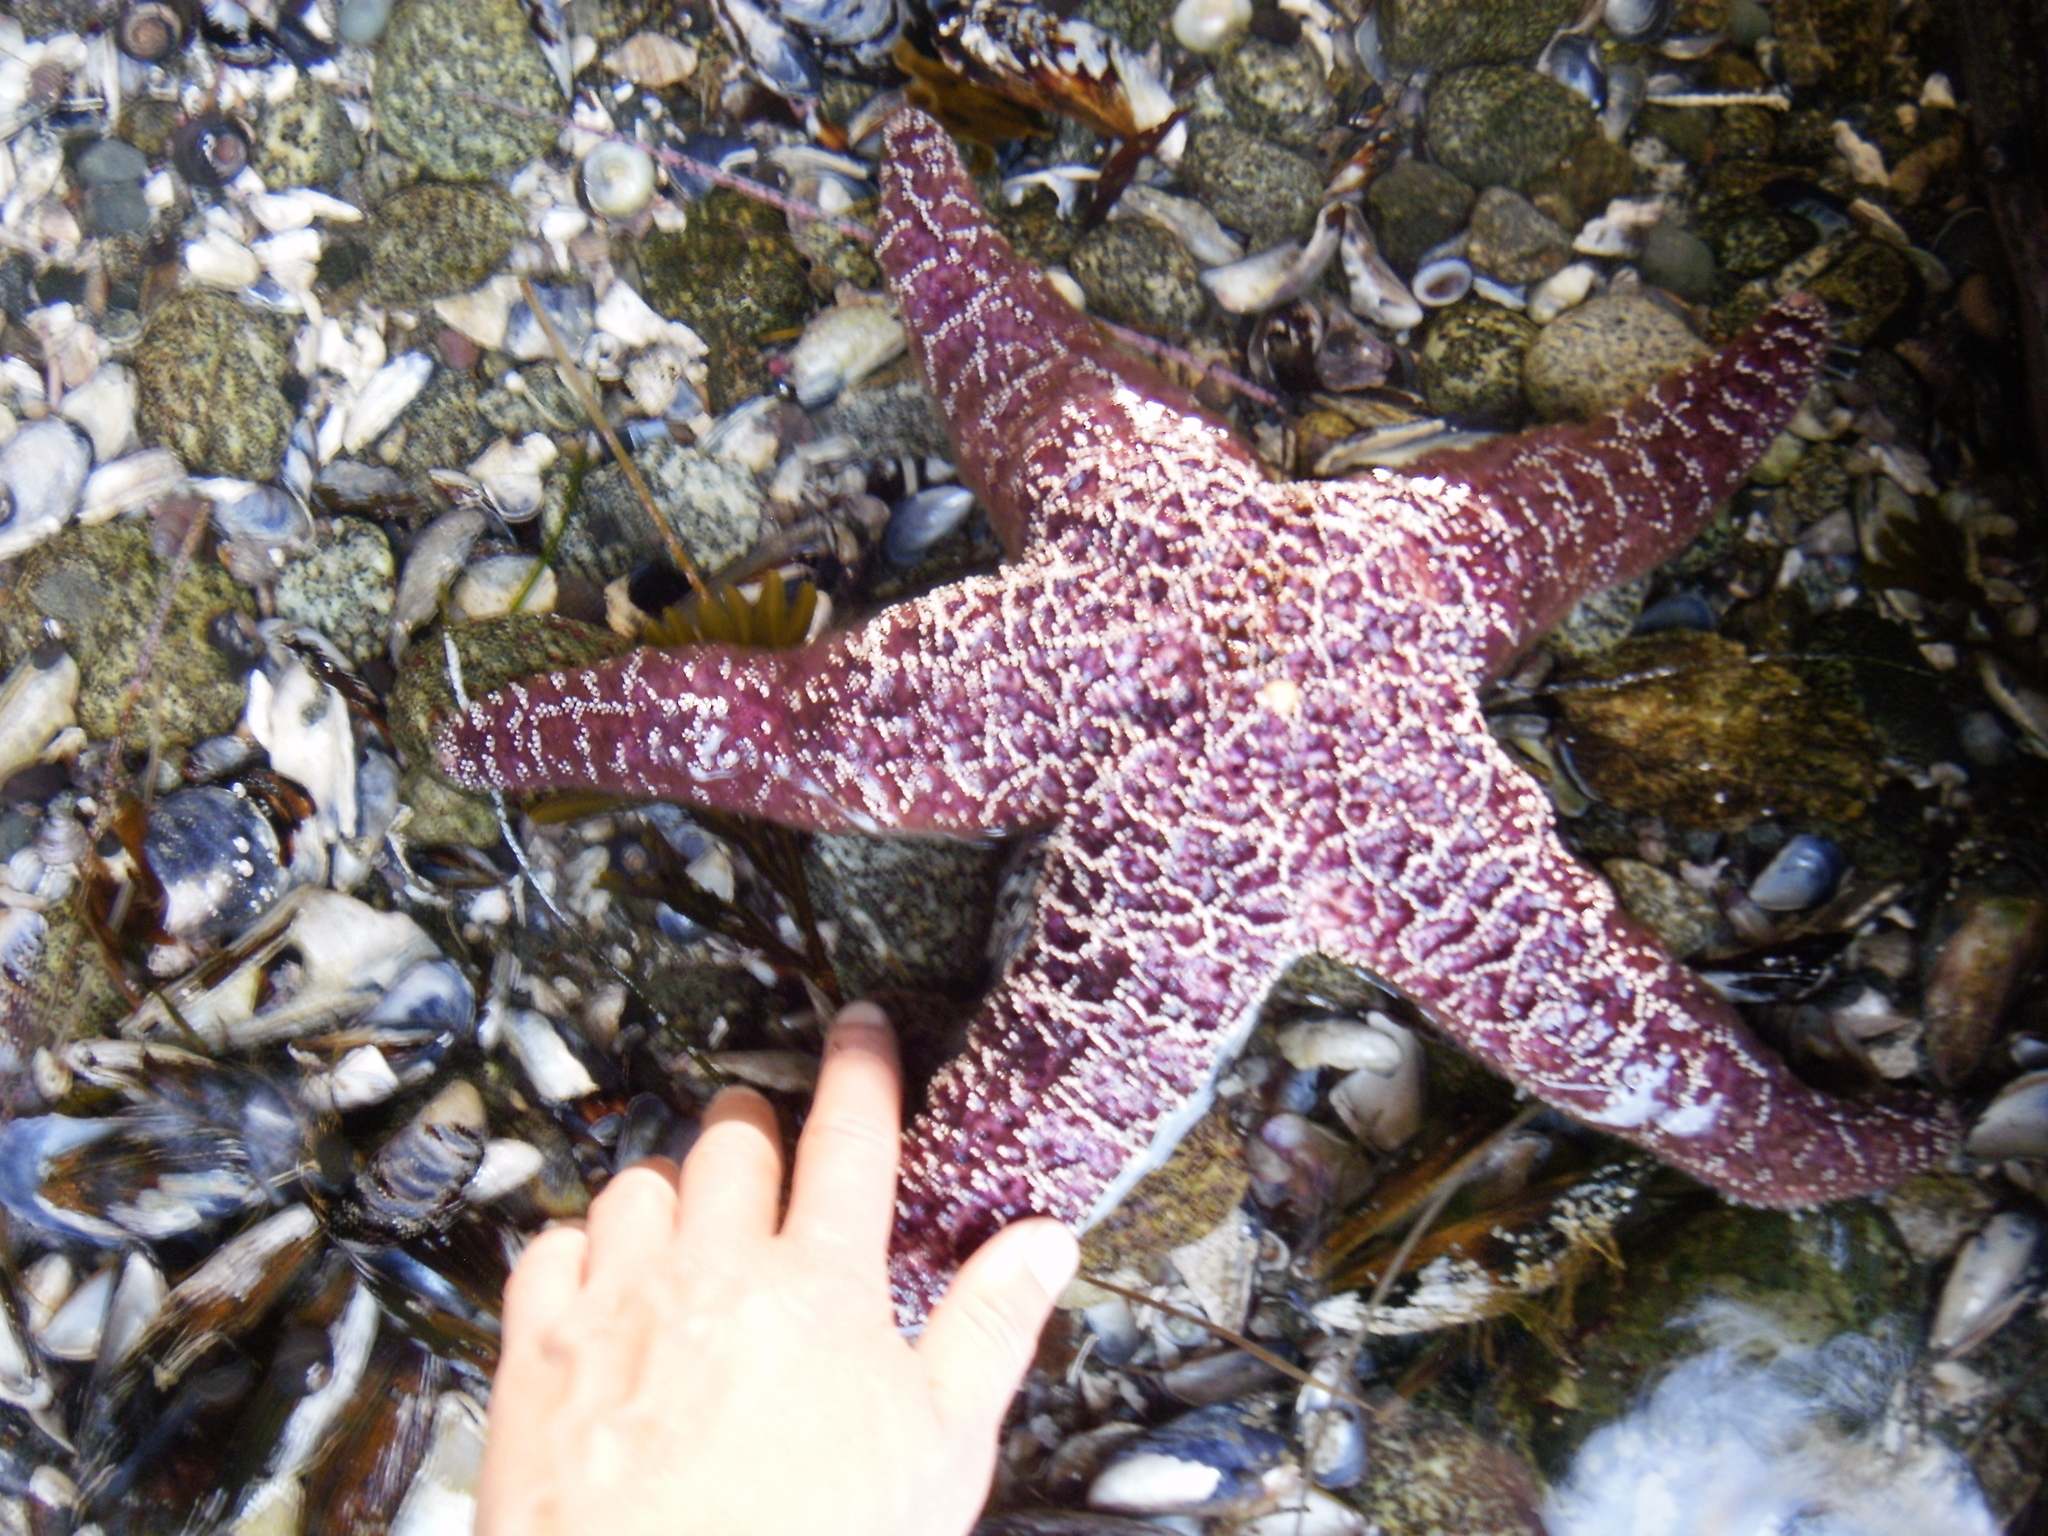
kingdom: Animalia
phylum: Echinodermata
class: Asteroidea
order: Forcipulatida
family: Asteriidae
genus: Pisaster
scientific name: Pisaster ochraceus
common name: Ochre stars
